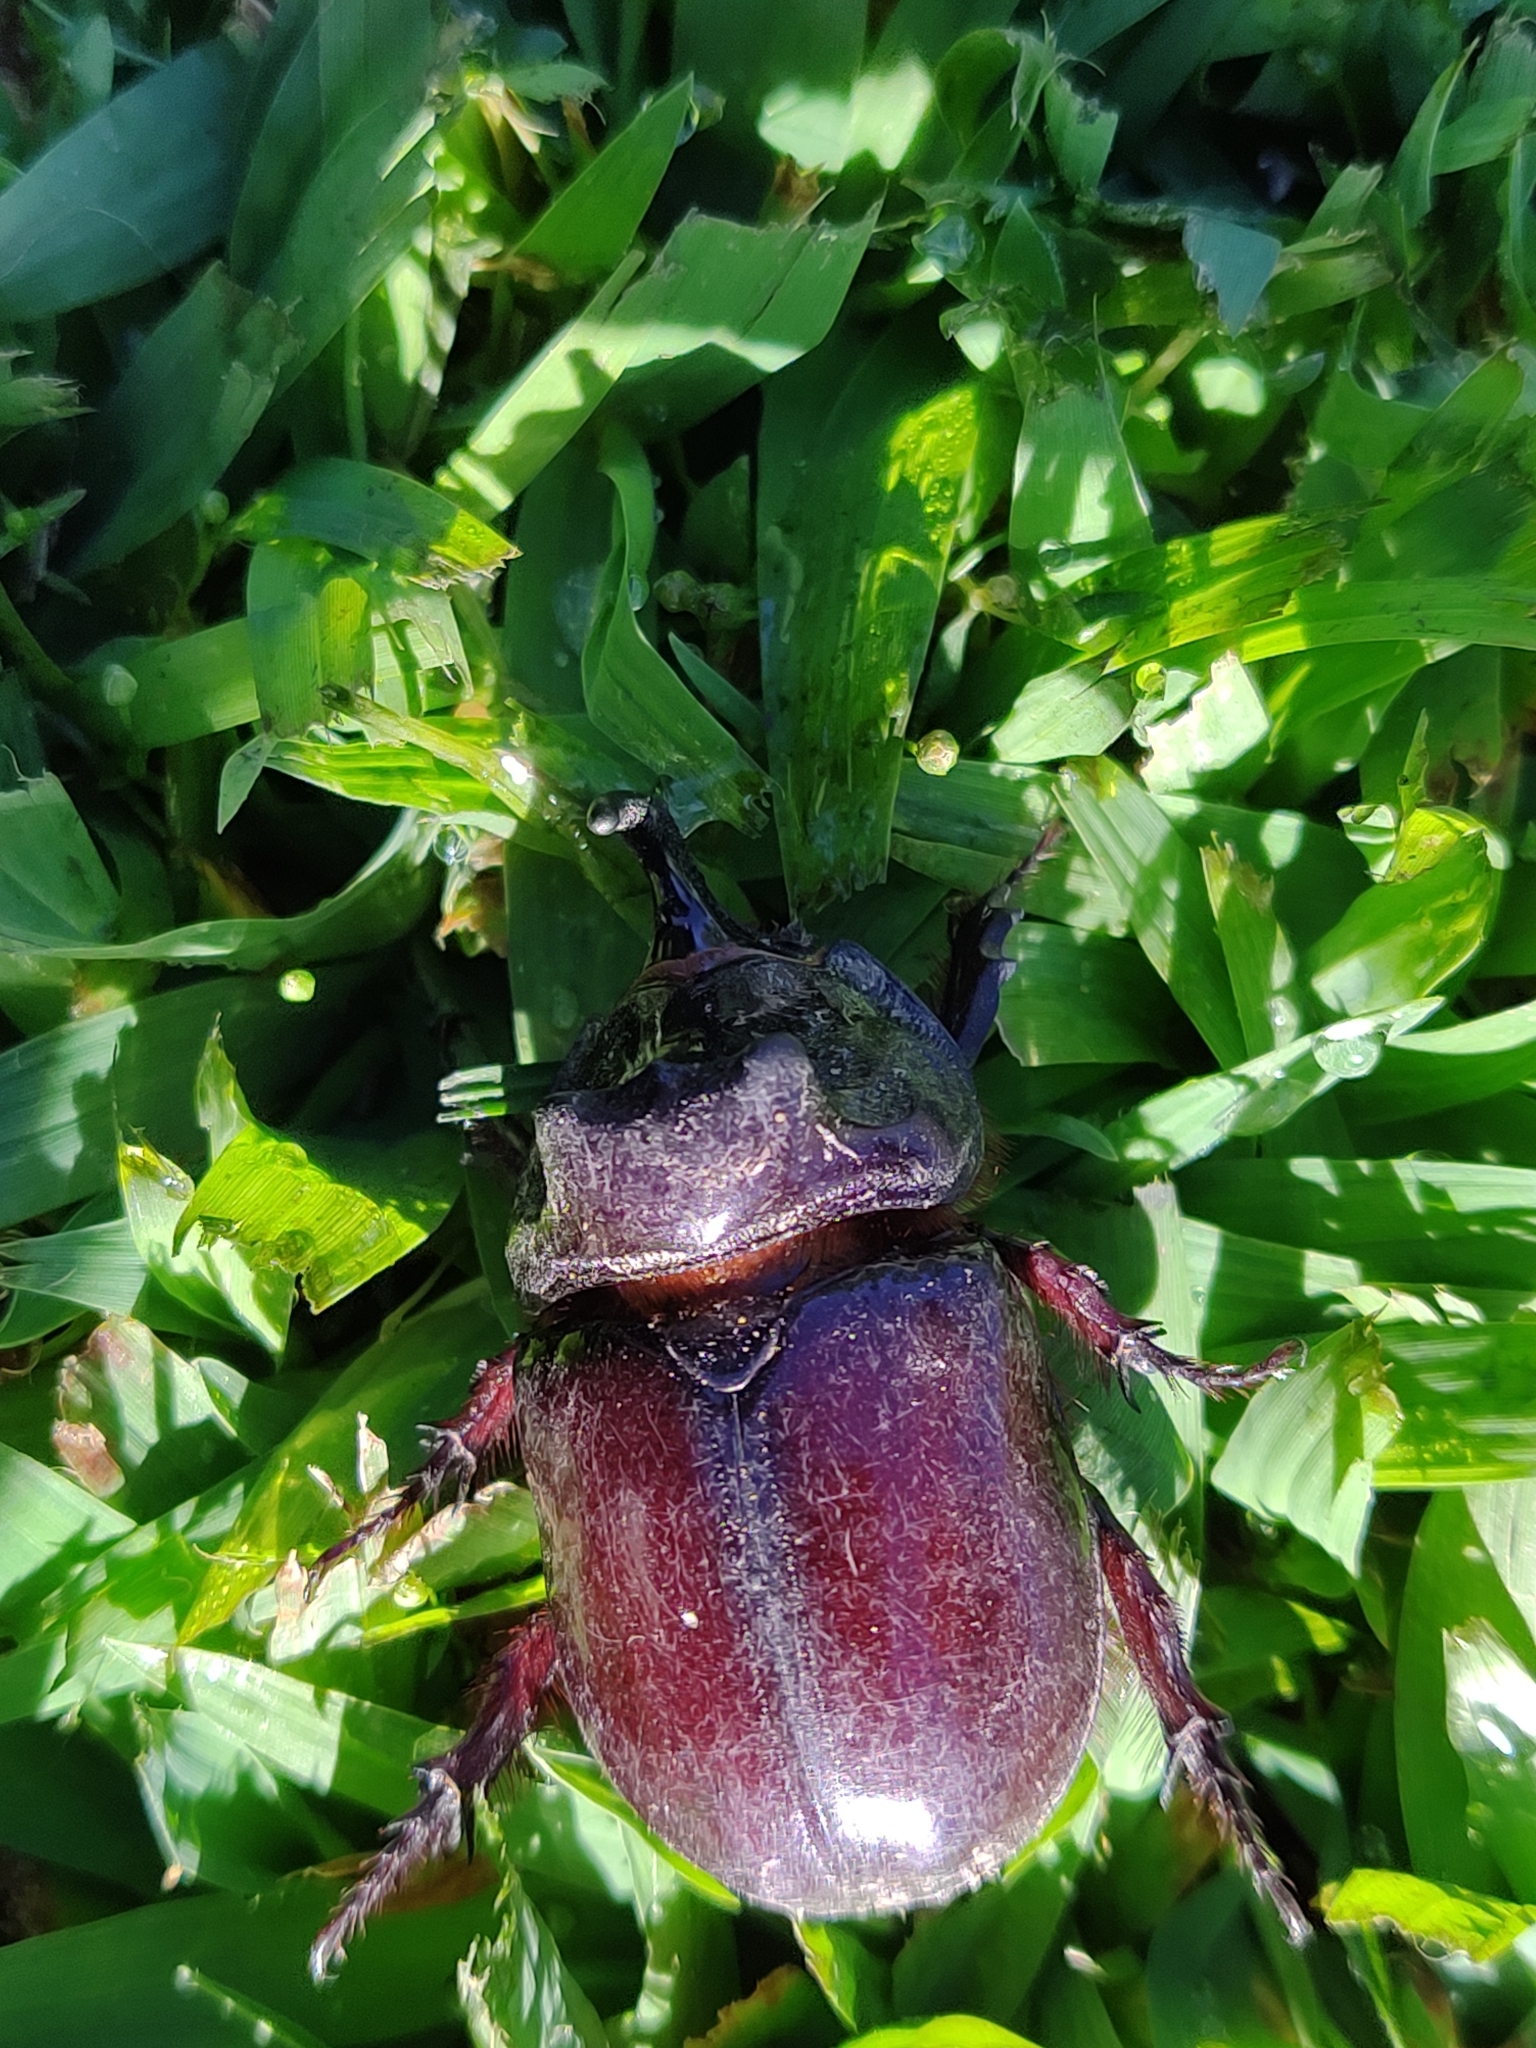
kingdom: Animalia
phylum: Arthropoda
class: Insecta
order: Coleoptera
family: Scarabaeidae
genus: Oryctes
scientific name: Oryctes nasicornis
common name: European rhinoceros beetle
